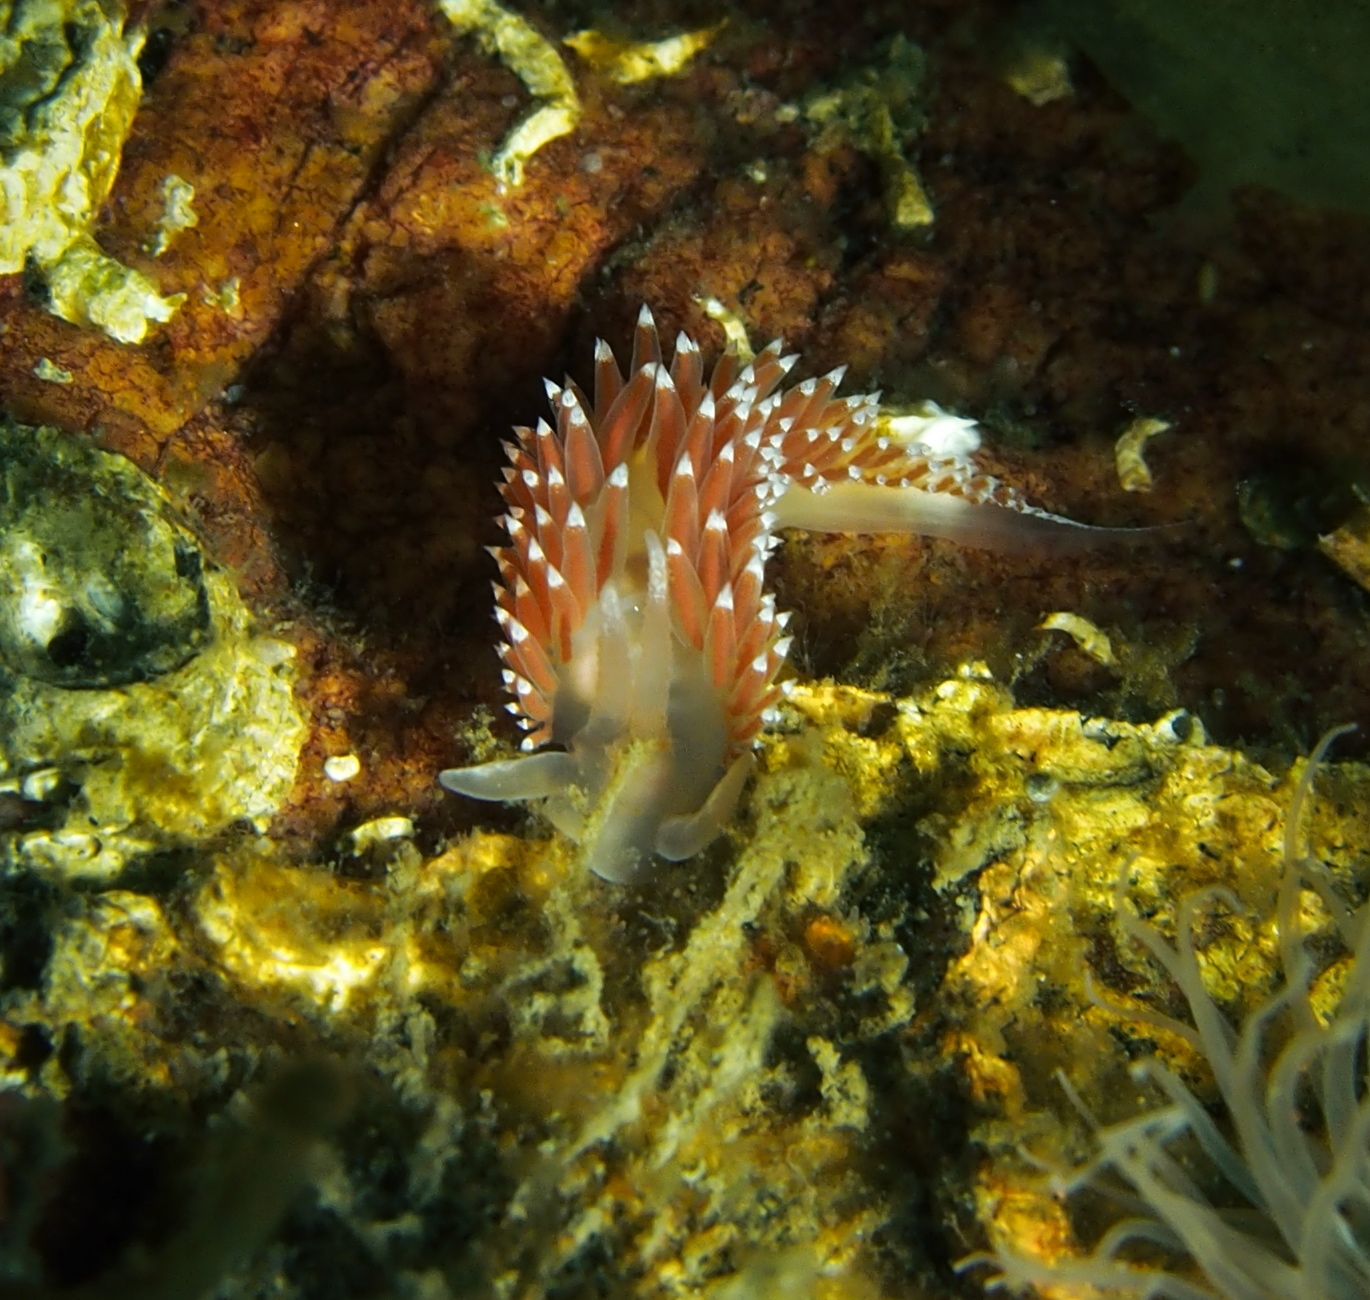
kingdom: Animalia
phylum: Mollusca
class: Gastropoda
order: Nudibranchia
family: Coryphellidae
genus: Coryphella
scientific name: Coryphella nobilis
